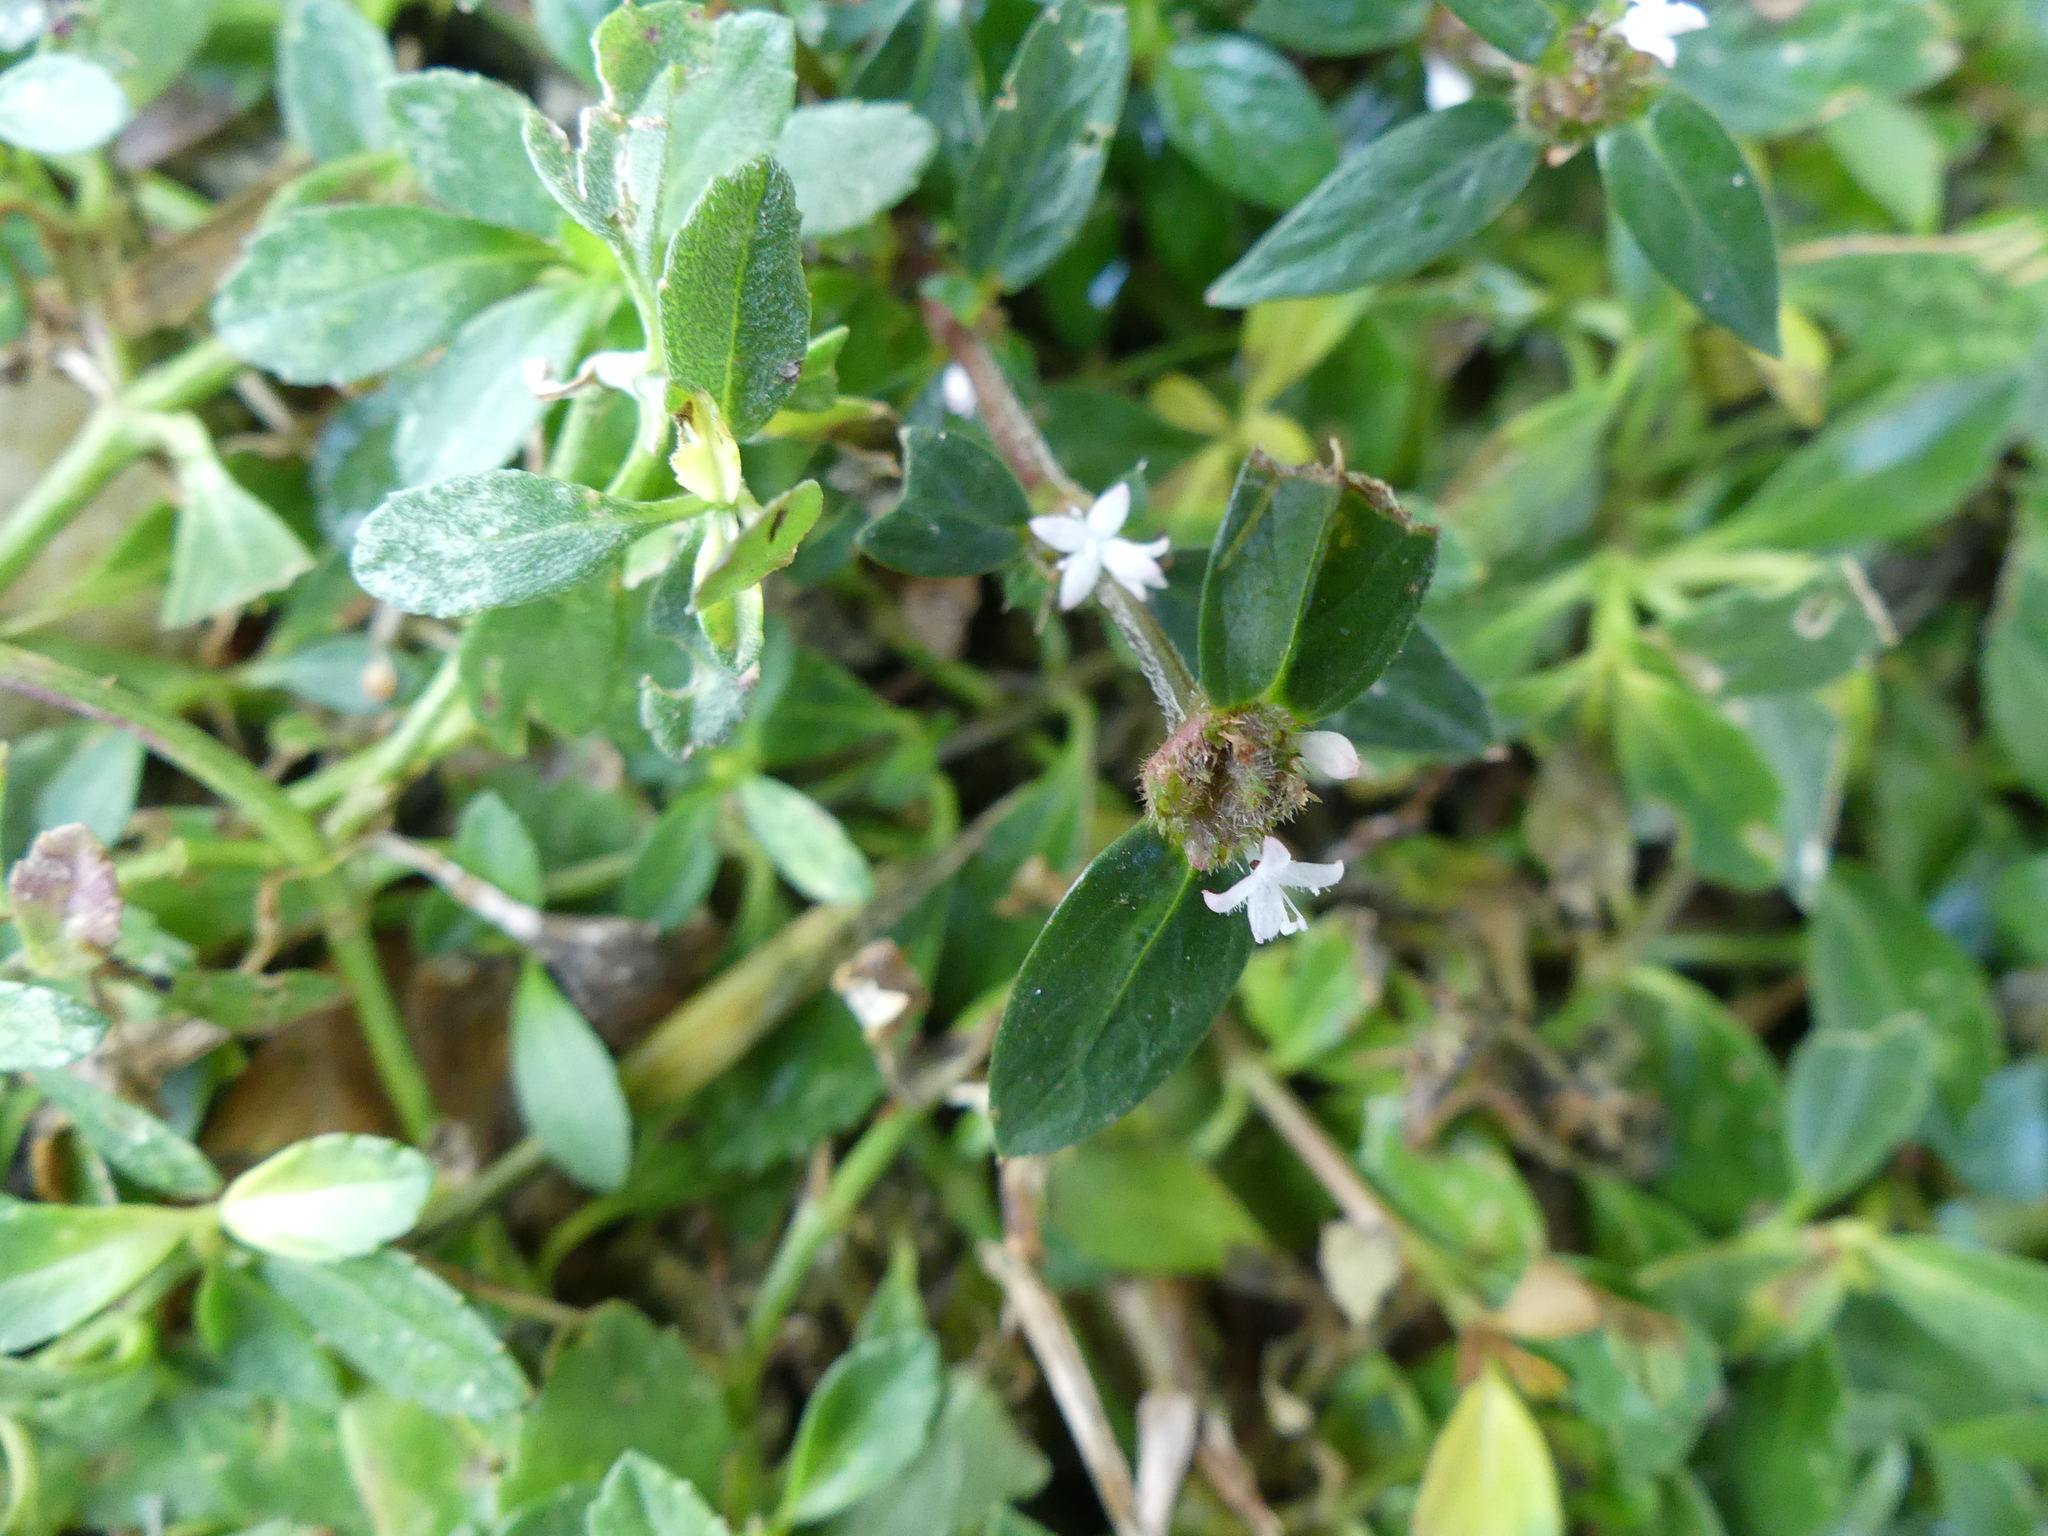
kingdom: Plantae
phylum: Tracheophyta
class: Magnoliopsida
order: Gentianales
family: Rubiaceae
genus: Spermacoce
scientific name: Spermacoce remota
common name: Woodland false buttonweed
